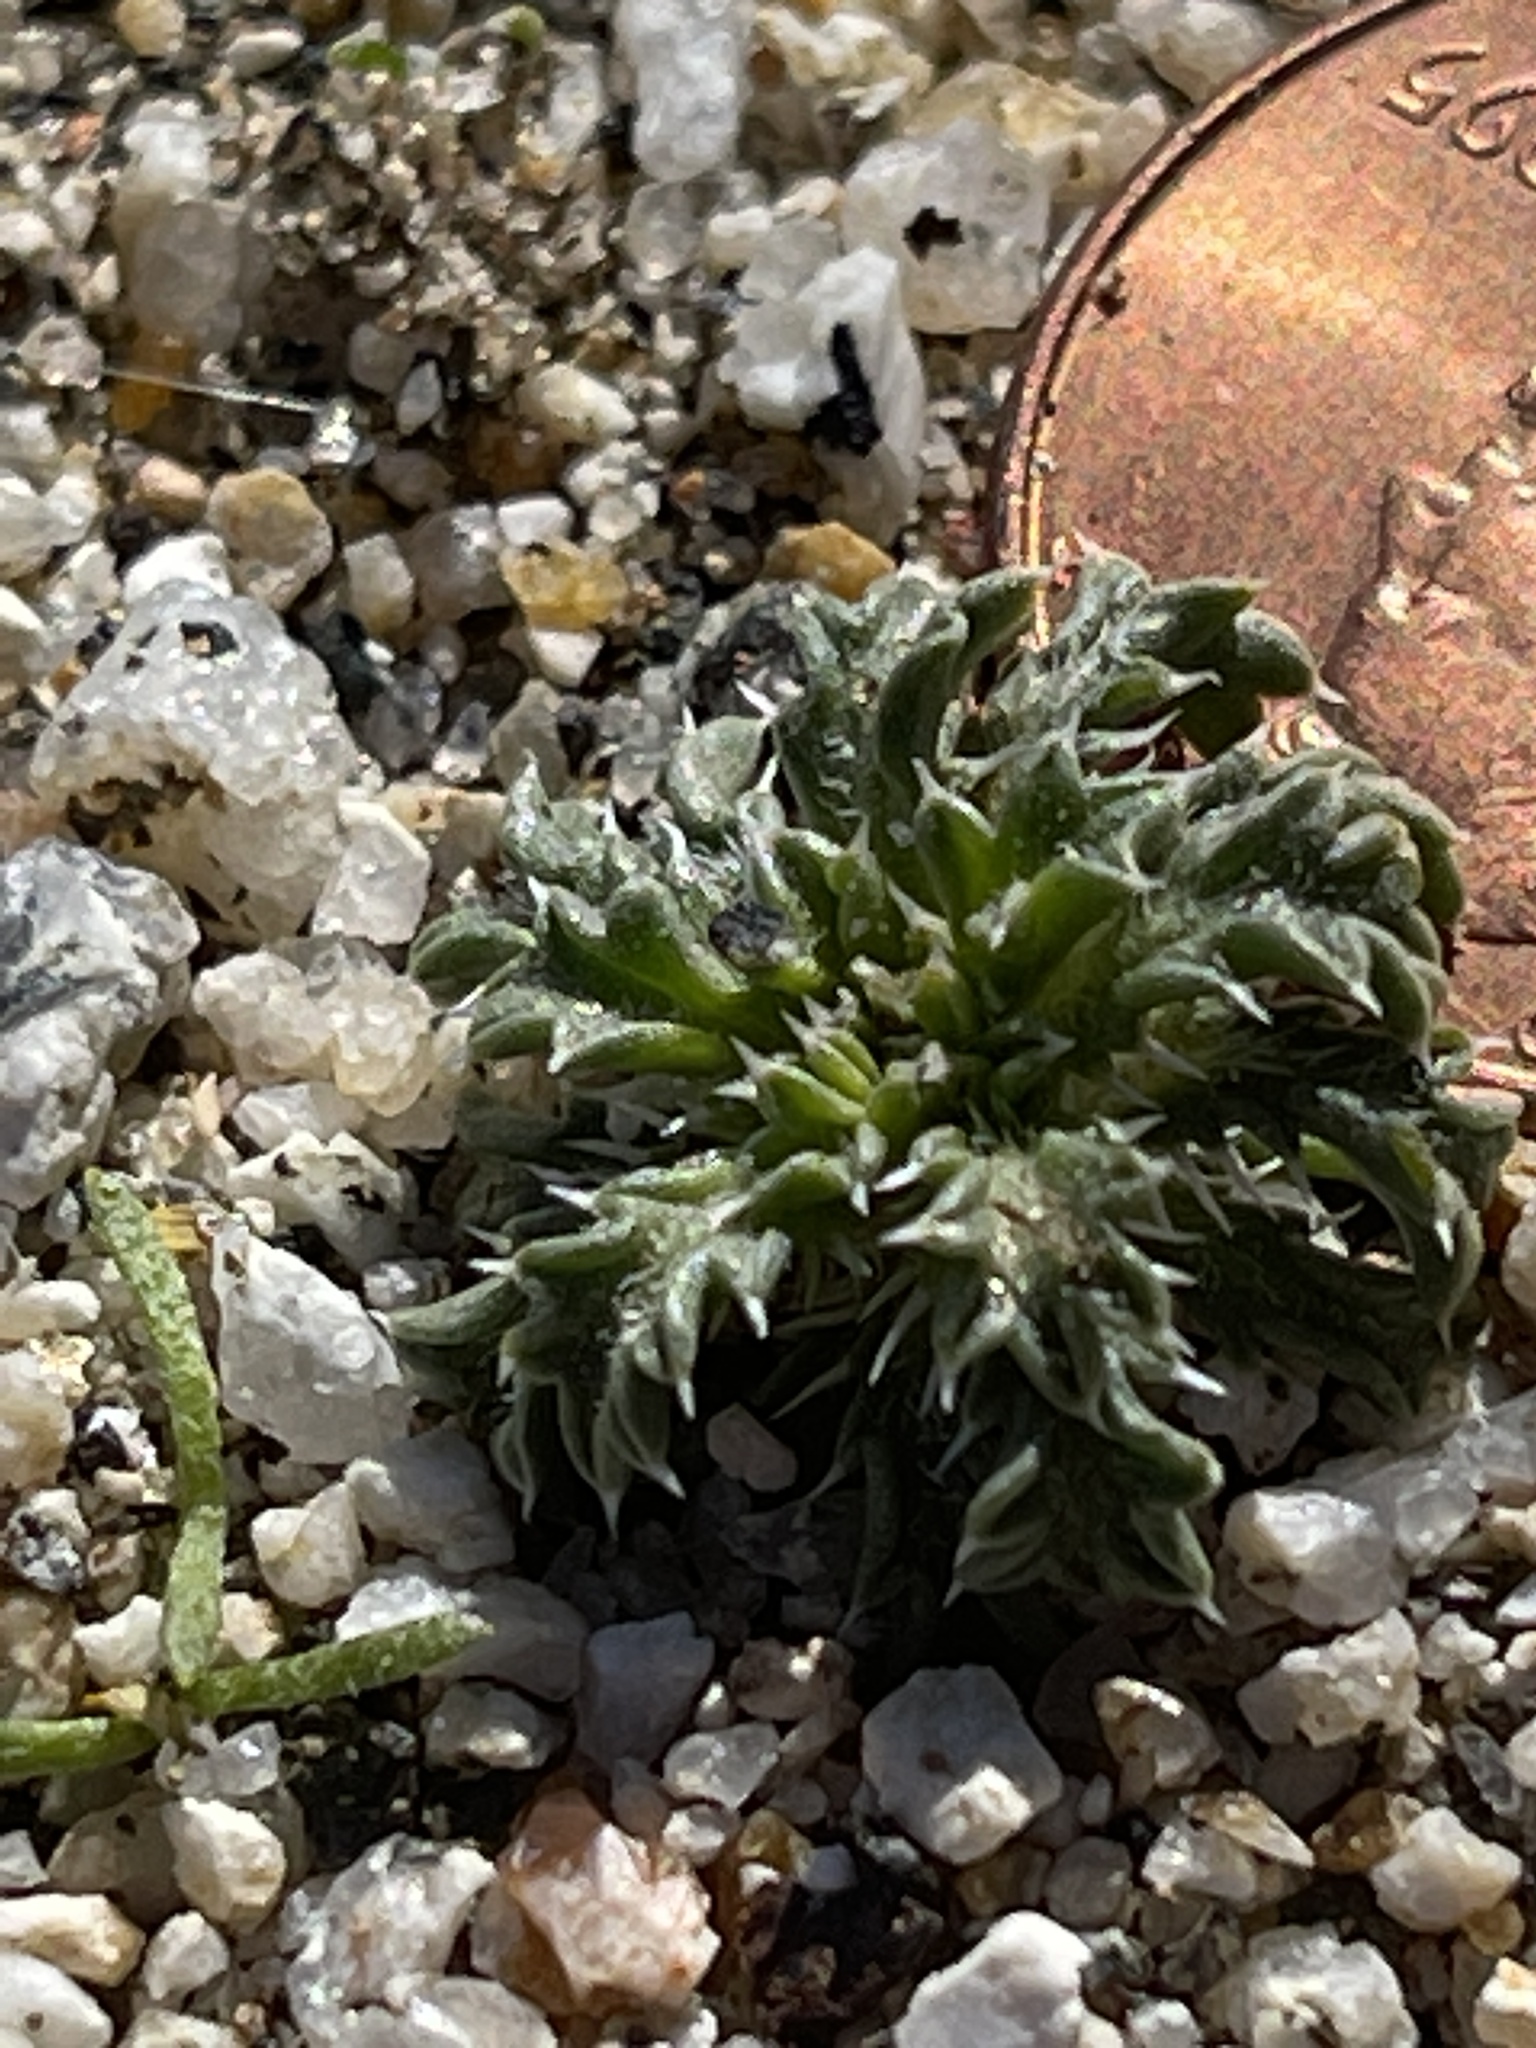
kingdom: Plantae
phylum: Tracheophyta
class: Magnoliopsida
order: Ericales
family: Polemoniaceae
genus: Loeseliastrum
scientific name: Loeseliastrum matthewsii
